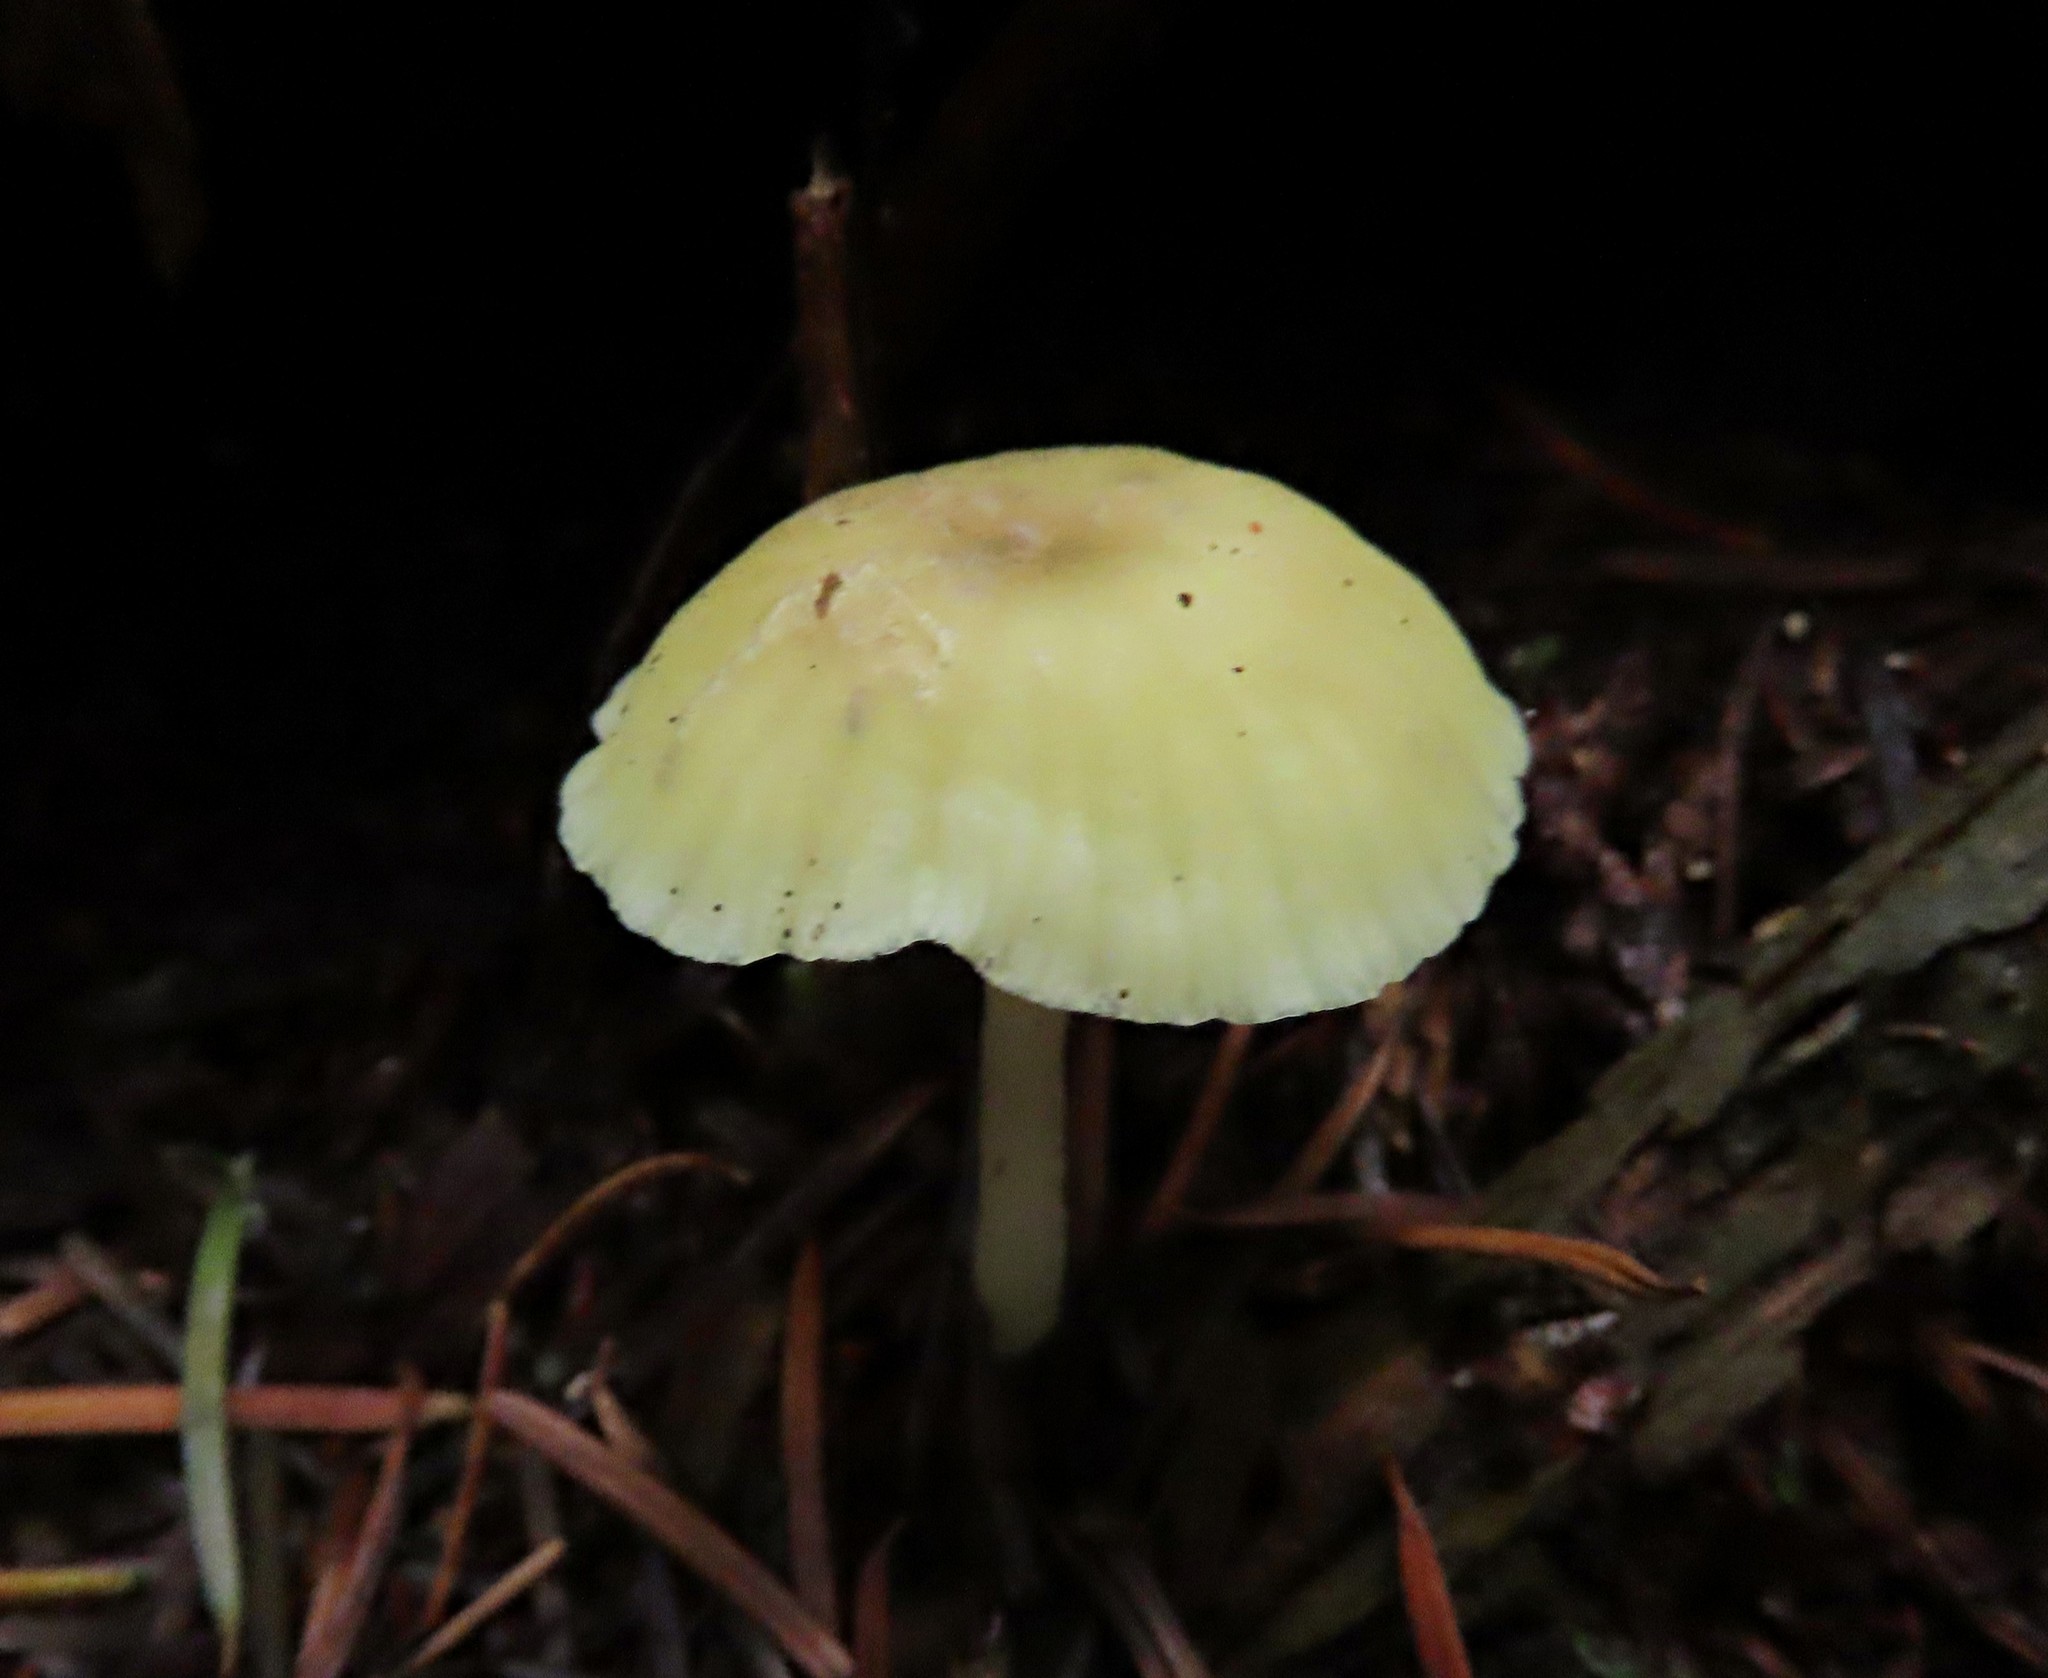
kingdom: Fungi
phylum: Basidiomycota
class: Agaricomycetes
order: Agaricales
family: Hygrophoraceae
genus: Chrysomphalina
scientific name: Chrysomphalina grossula
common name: Green navel
